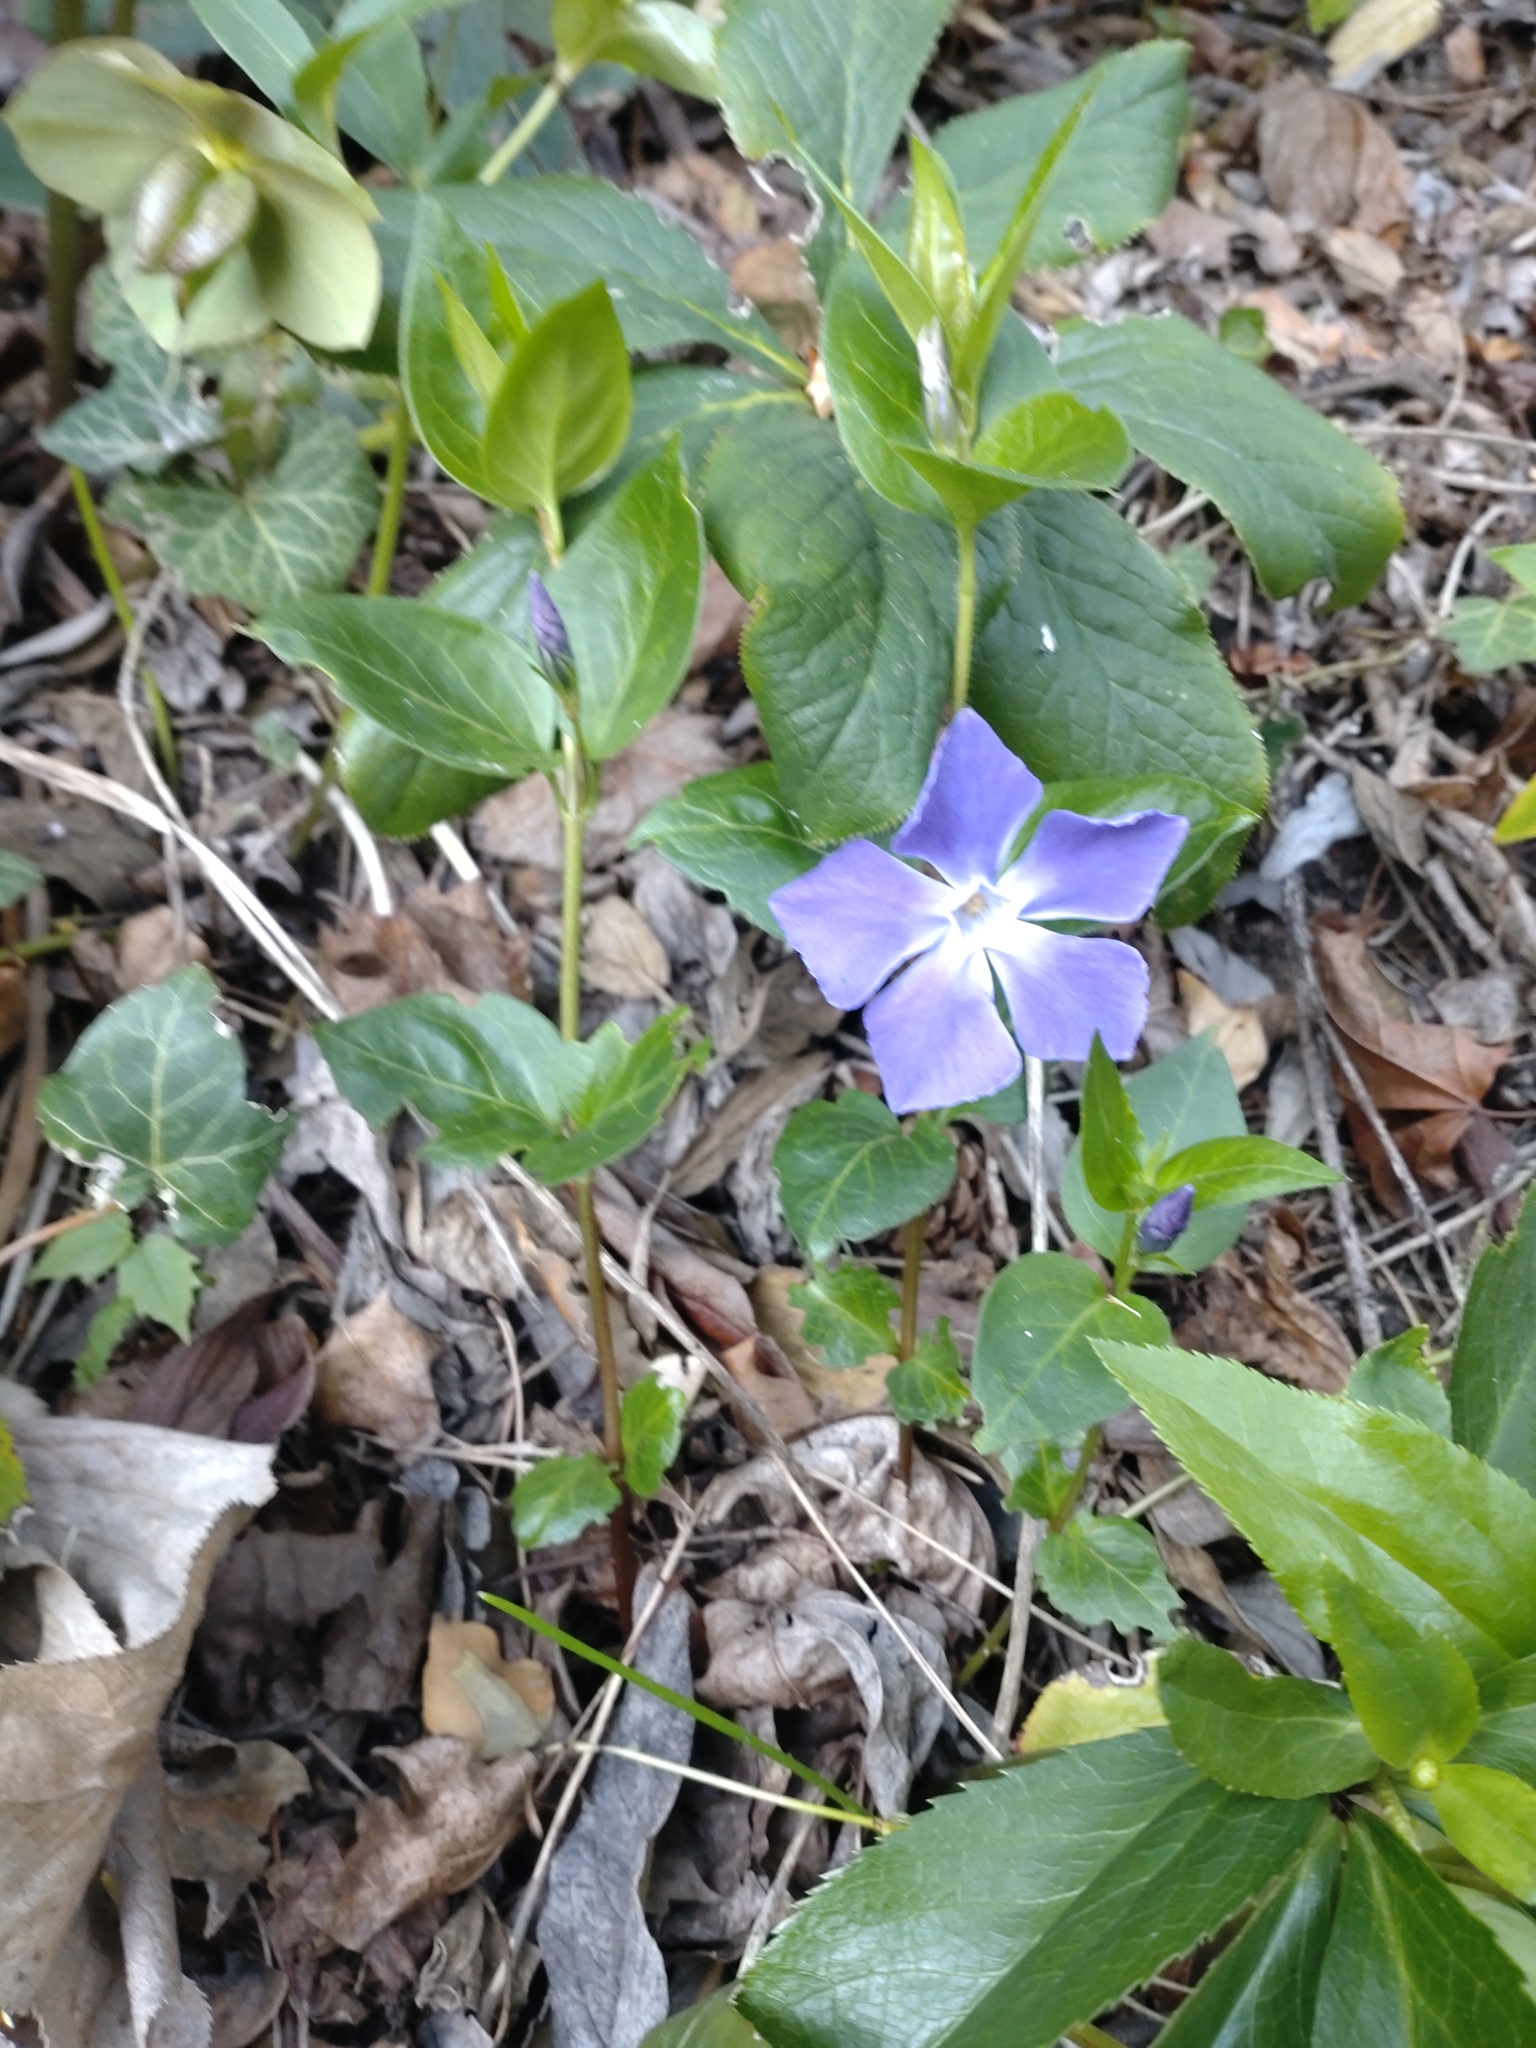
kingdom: Plantae
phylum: Tracheophyta
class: Magnoliopsida
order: Gentianales
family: Apocynaceae
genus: Vinca
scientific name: Vinca major
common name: Greater periwinkle
